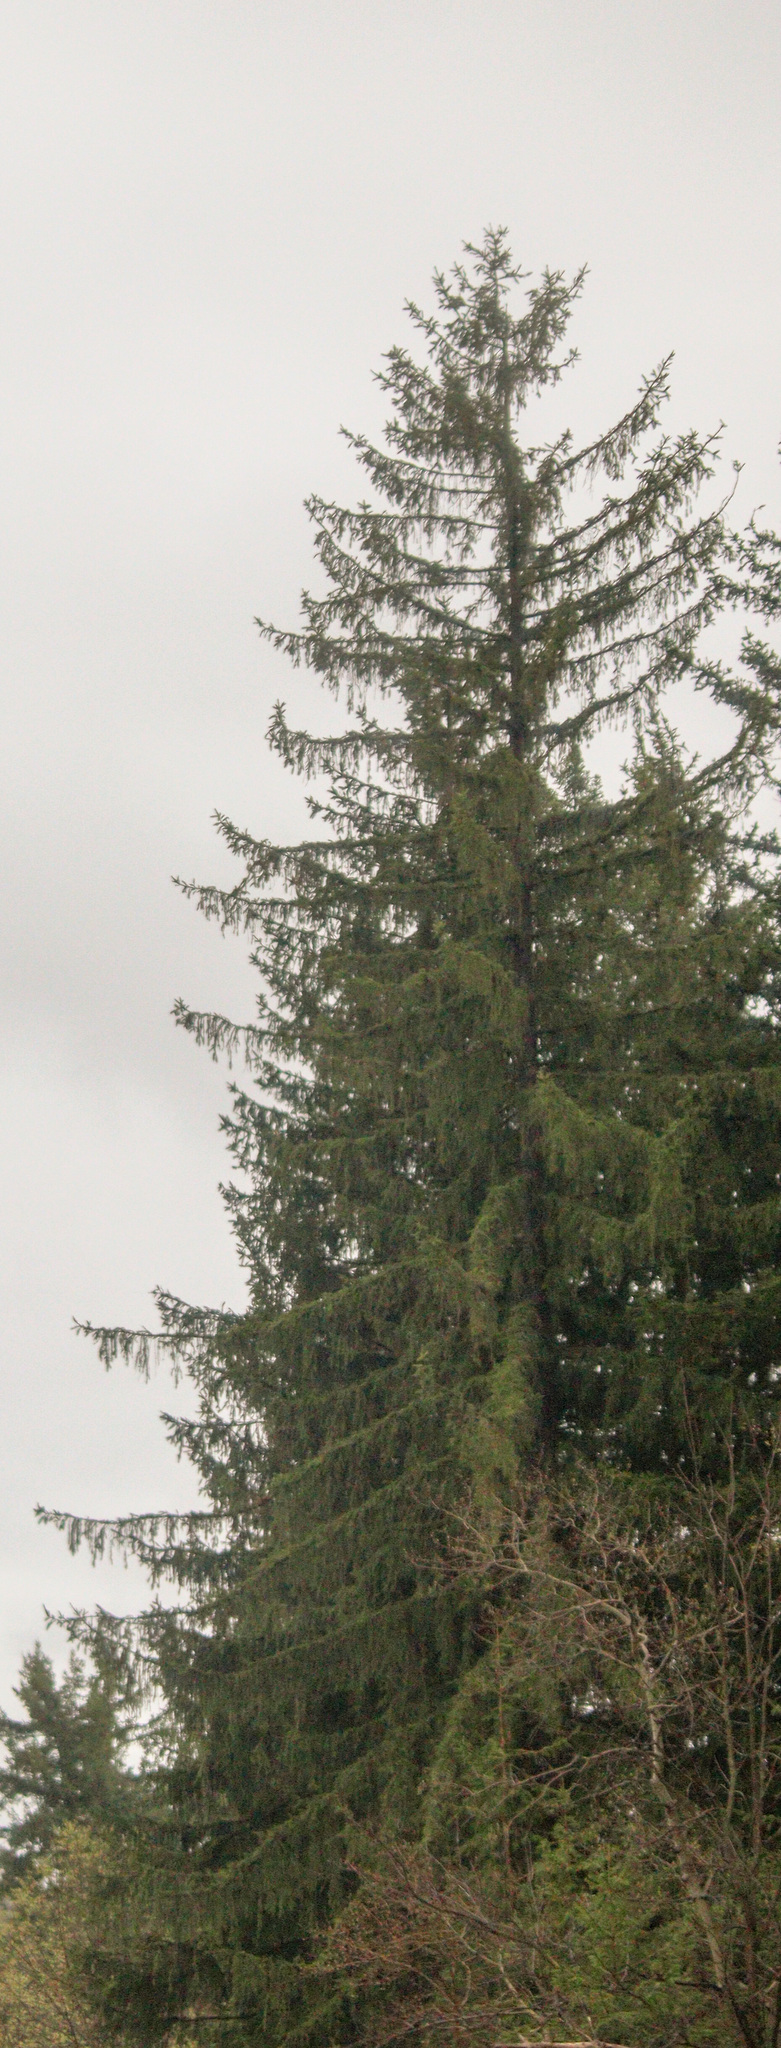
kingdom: Plantae
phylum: Tracheophyta
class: Pinopsida
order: Pinales
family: Pinaceae
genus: Picea
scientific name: Picea abies
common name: Norway spruce
